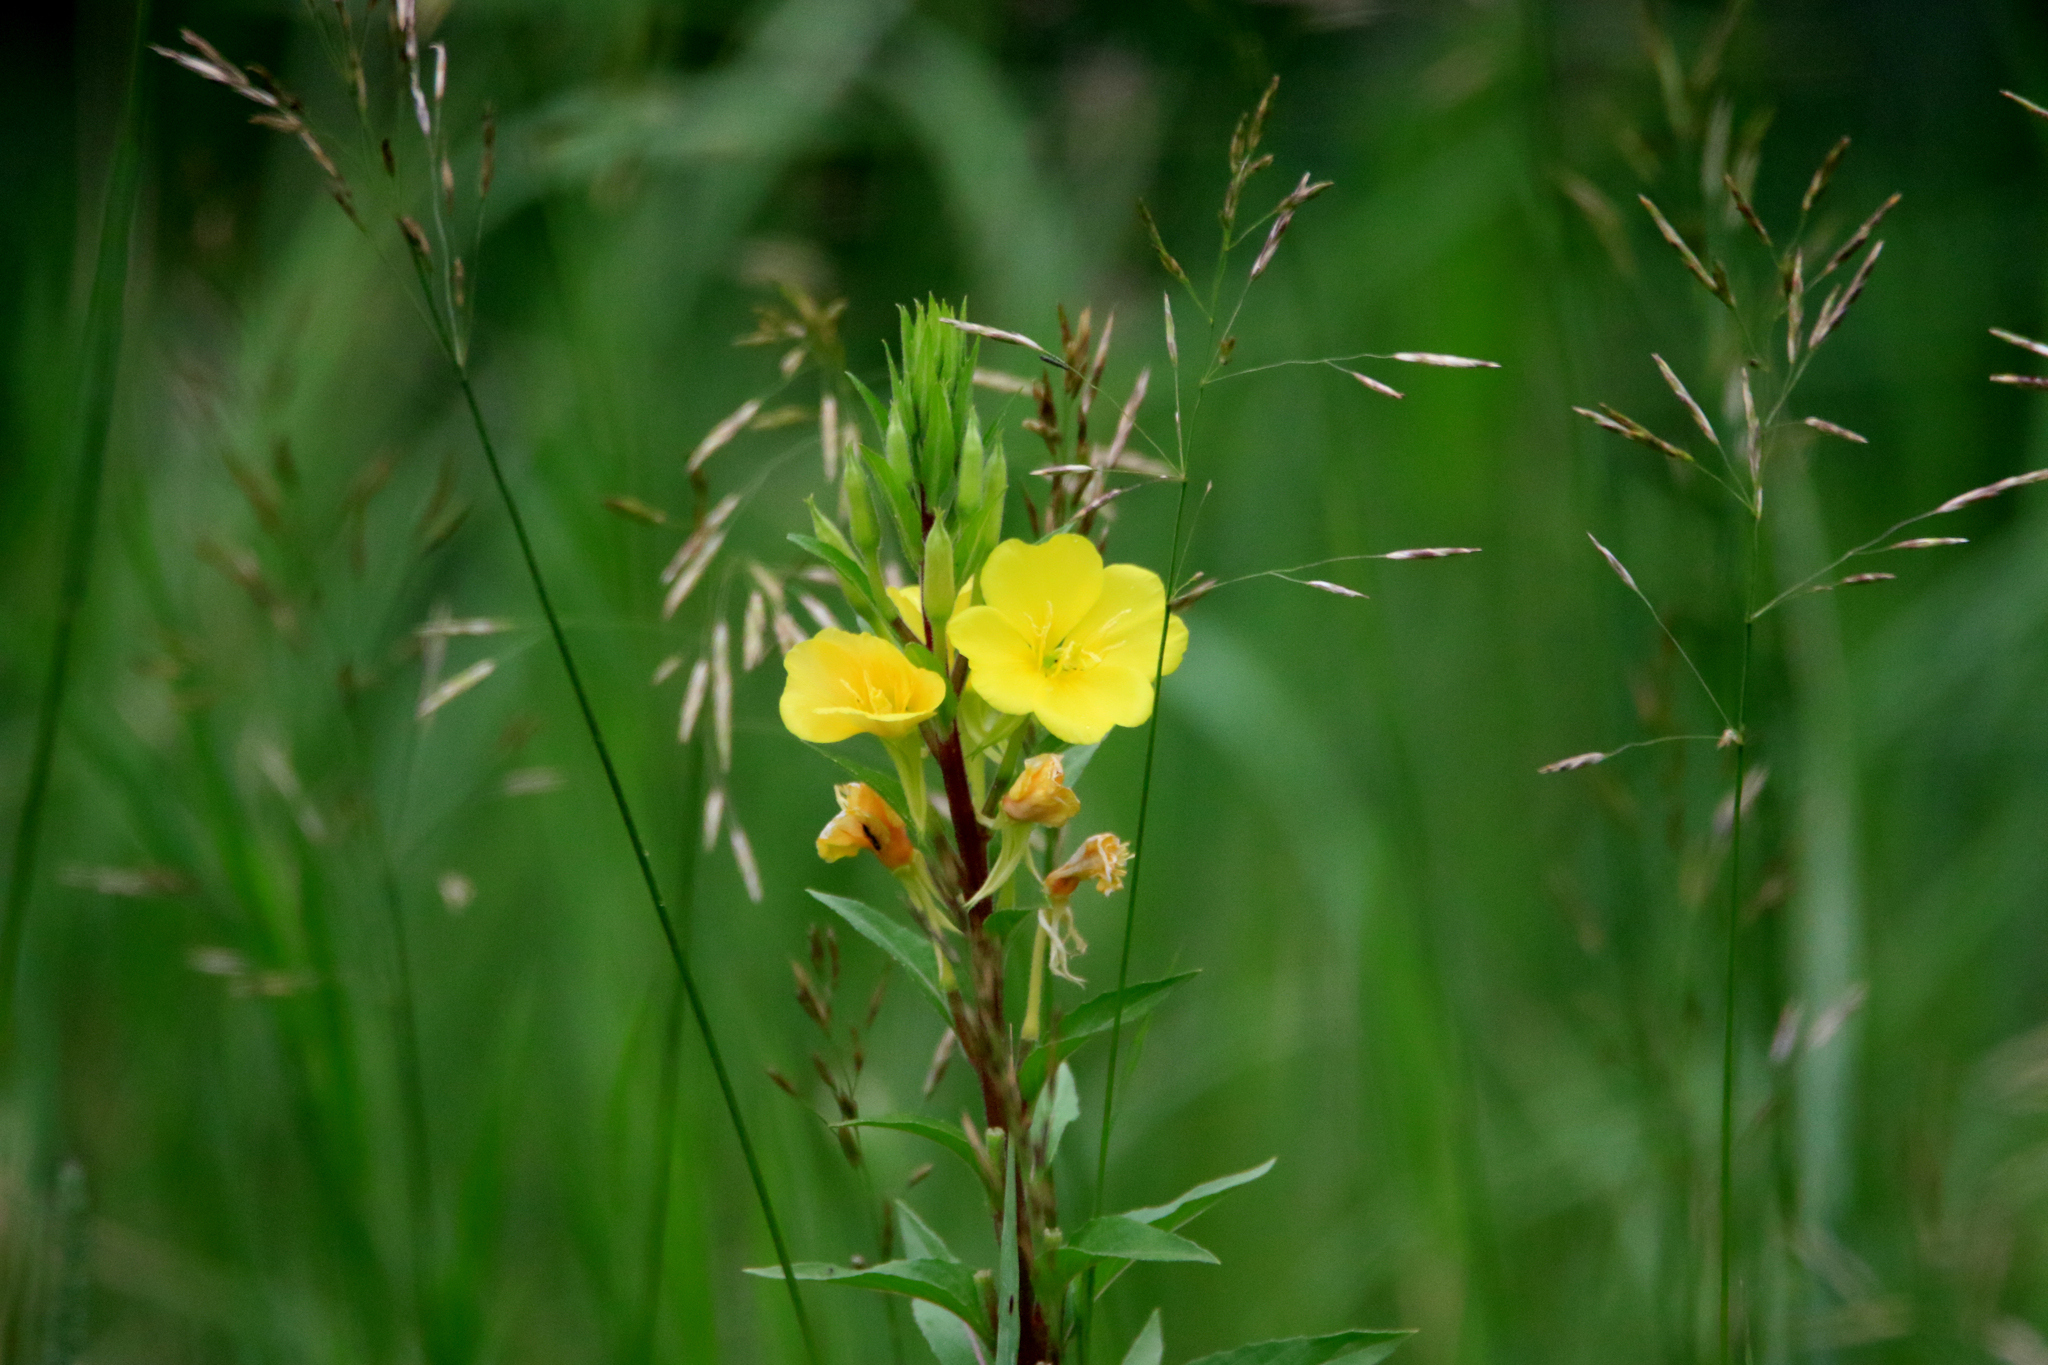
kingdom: Plantae
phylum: Tracheophyta
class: Magnoliopsida
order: Myrtales
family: Onagraceae
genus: Oenothera
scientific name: Oenothera rubricaulis
